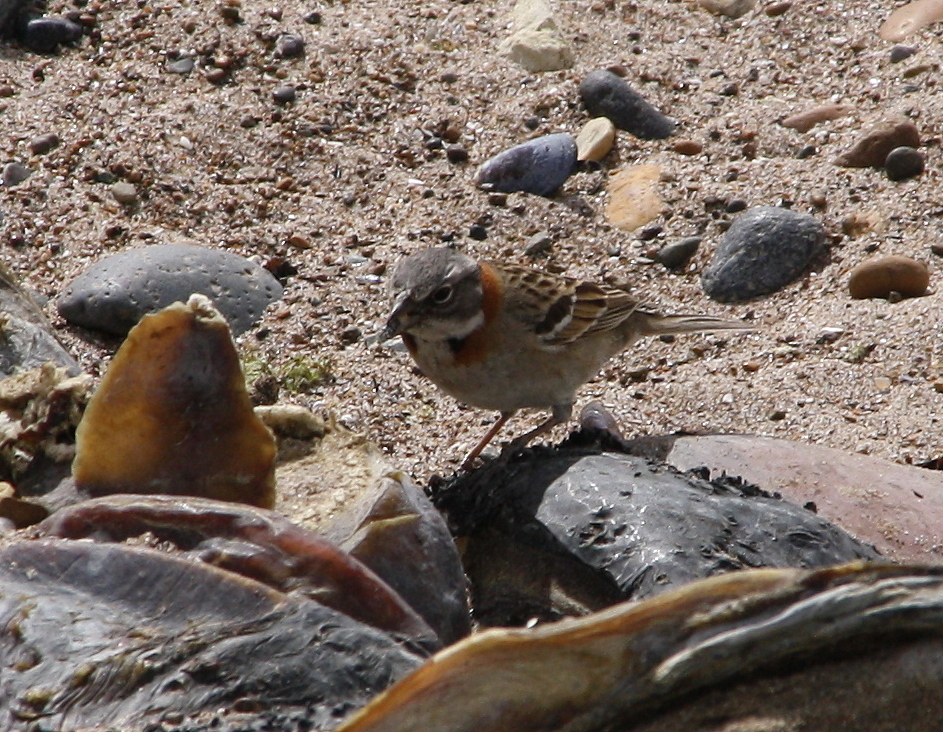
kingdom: Animalia
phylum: Chordata
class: Aves
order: Passeriformes
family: Passerellidae
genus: Zonotrichia
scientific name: Zonotrichia capensis
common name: Rufous-collared sparrow
